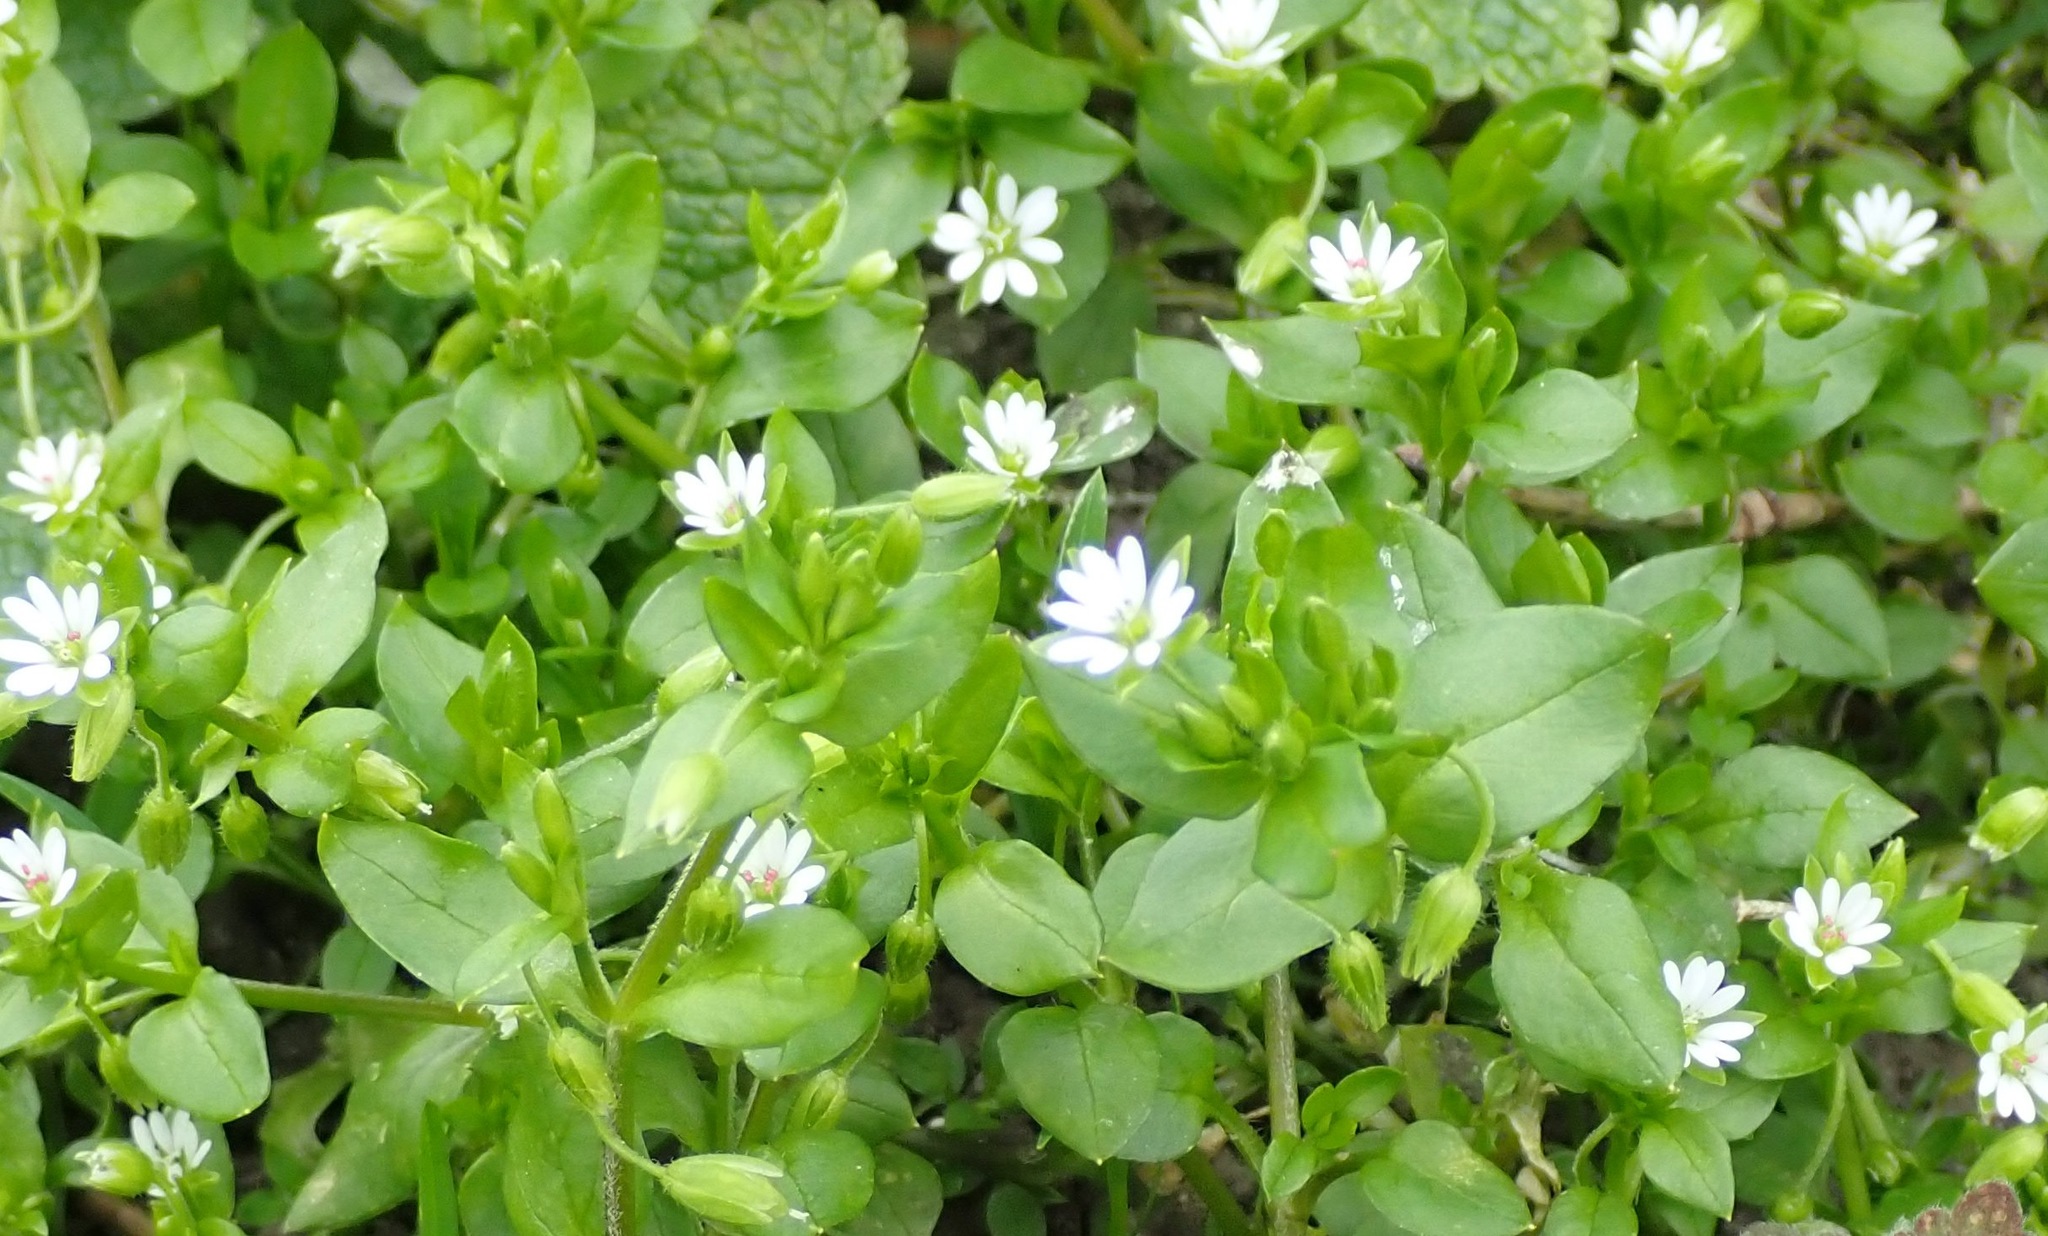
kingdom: Plantae
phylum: Tracheophyta
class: Magnoliopsida
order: Caryophyllales
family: Caryophyllaceae
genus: Stellaria
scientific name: Stellaria media
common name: Common chickweed
